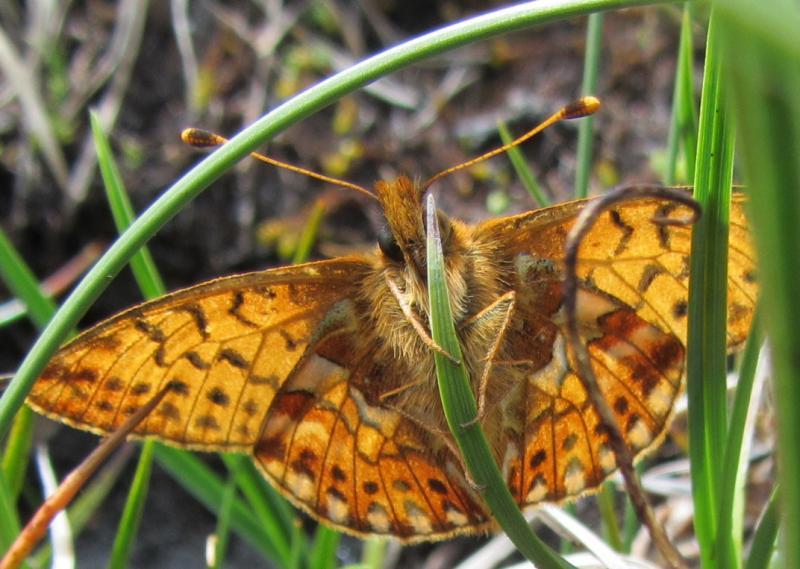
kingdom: Animalia
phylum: Arthropoda
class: Insecta
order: Lepidoptera
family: Nymphalidae
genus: Boloria
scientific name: Boloria pales
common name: Shepherd's fritillary
